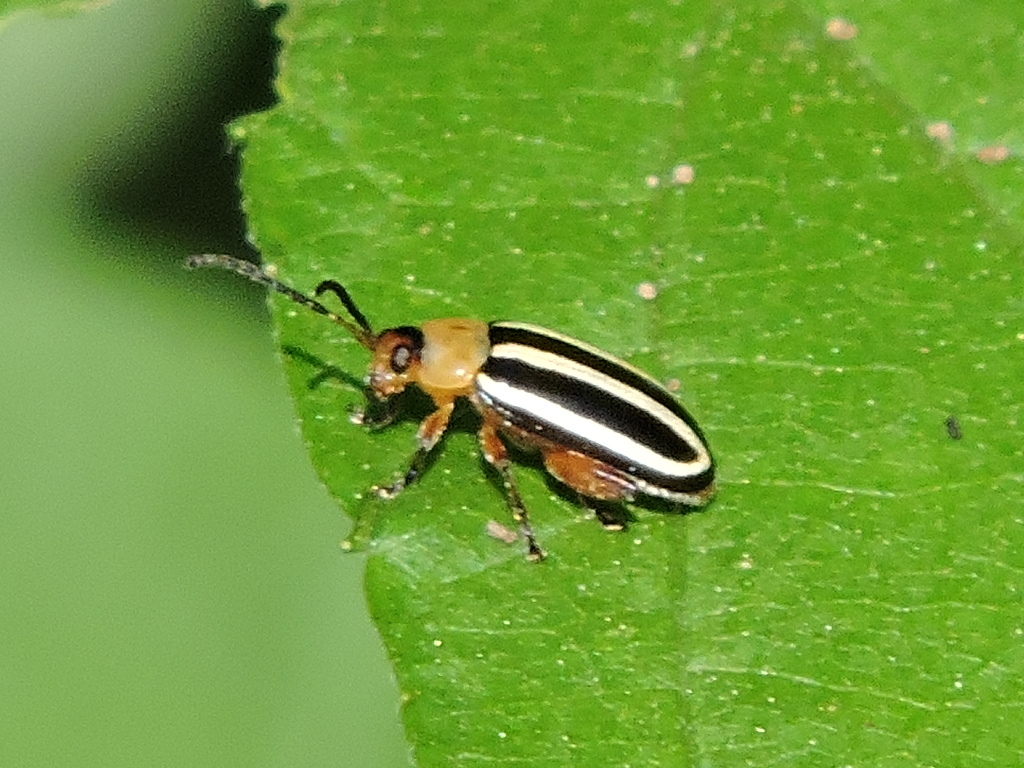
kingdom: Animalia
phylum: Arthropoda
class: Insecta
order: Coleoptera
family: Chrysomelidae
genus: Disonycha
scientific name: Disonycha glabrata
